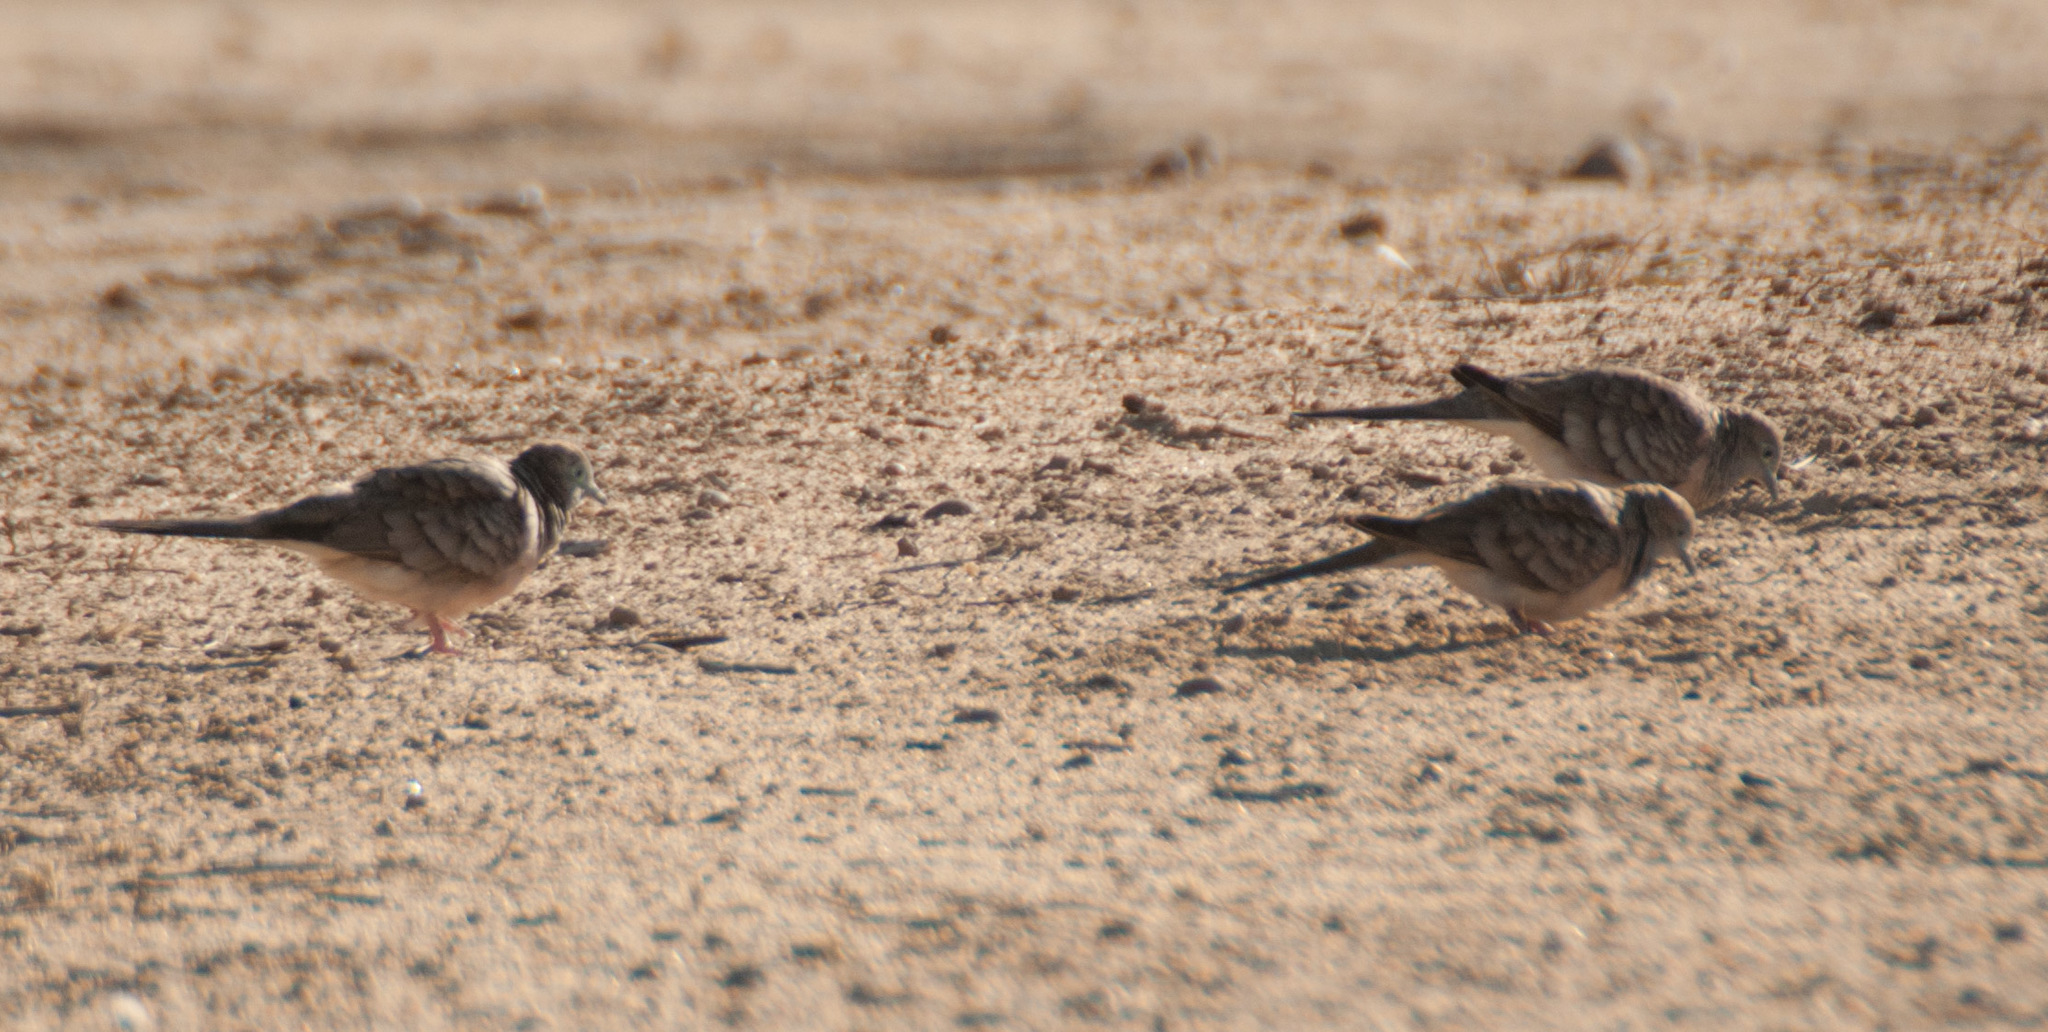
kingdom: Animalia
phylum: Chordata
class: Aves
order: Columbiformes
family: Columbidae
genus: Geopelia
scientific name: Geopelia placida
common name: Peaceful dove
